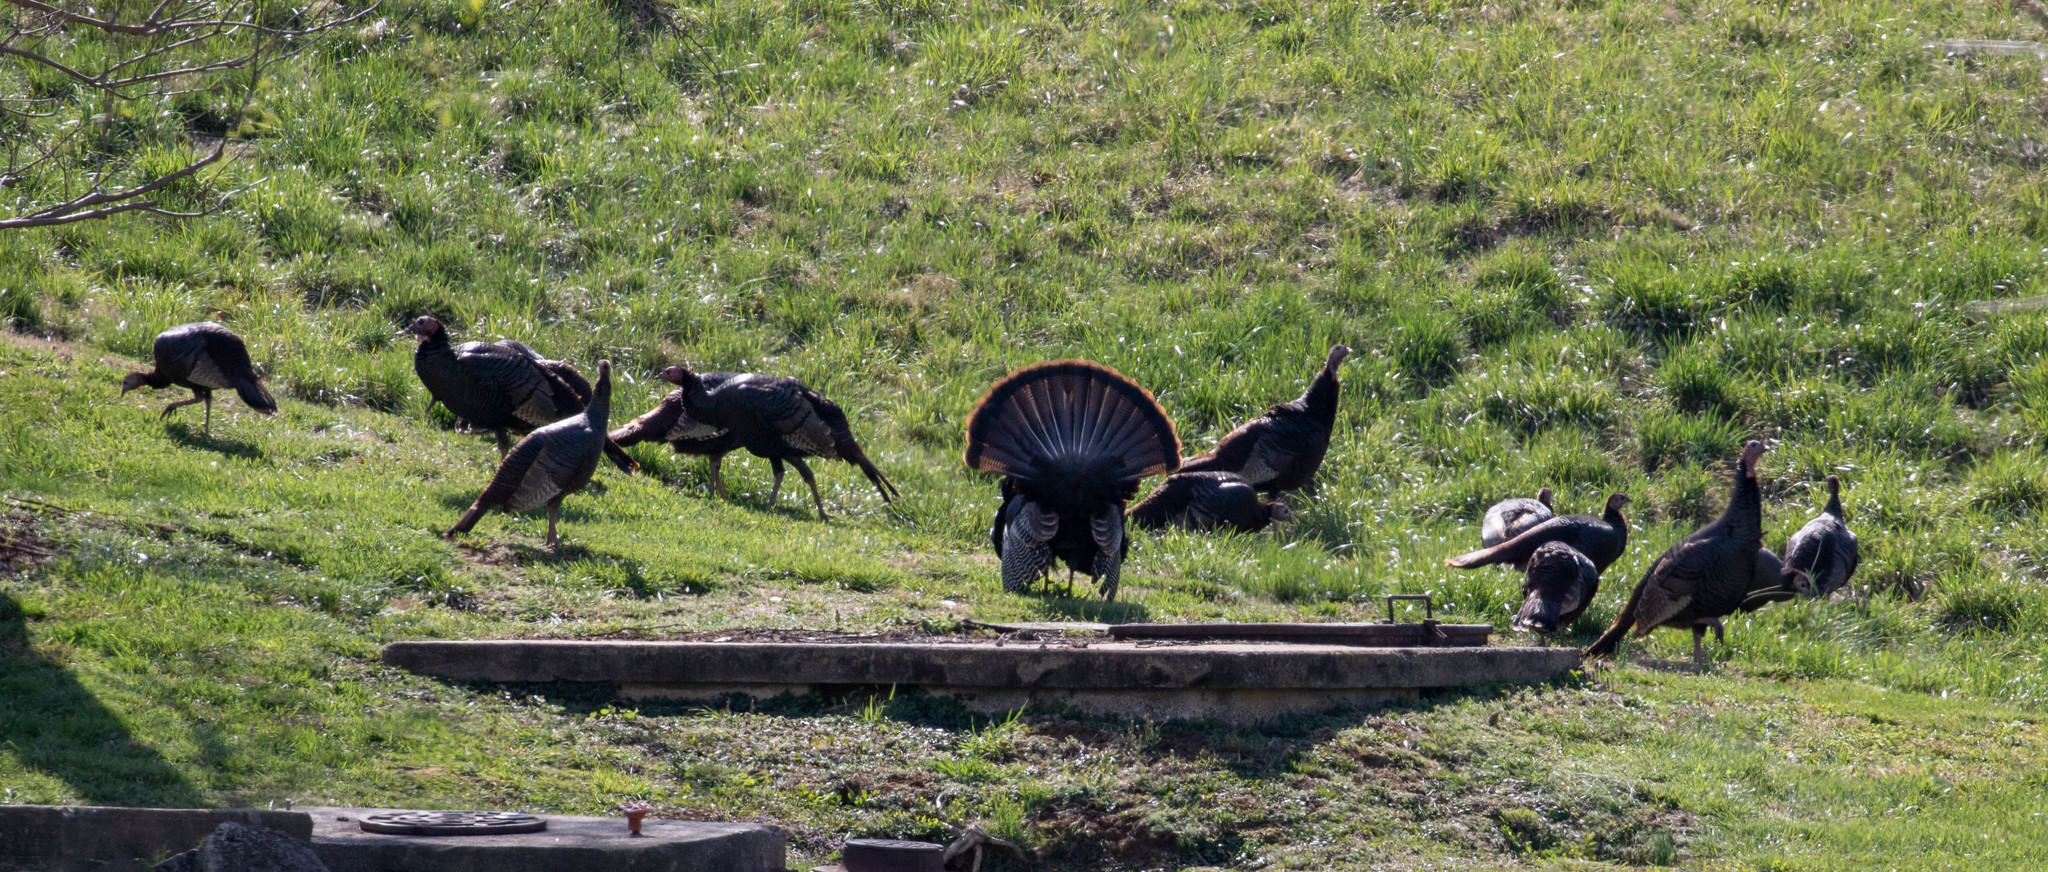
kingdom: Animalia
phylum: Chordata
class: Aves
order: Galliformes
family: Phasianidae
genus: Meleagris
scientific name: Meleagris gallopavo
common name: Wild turkey
